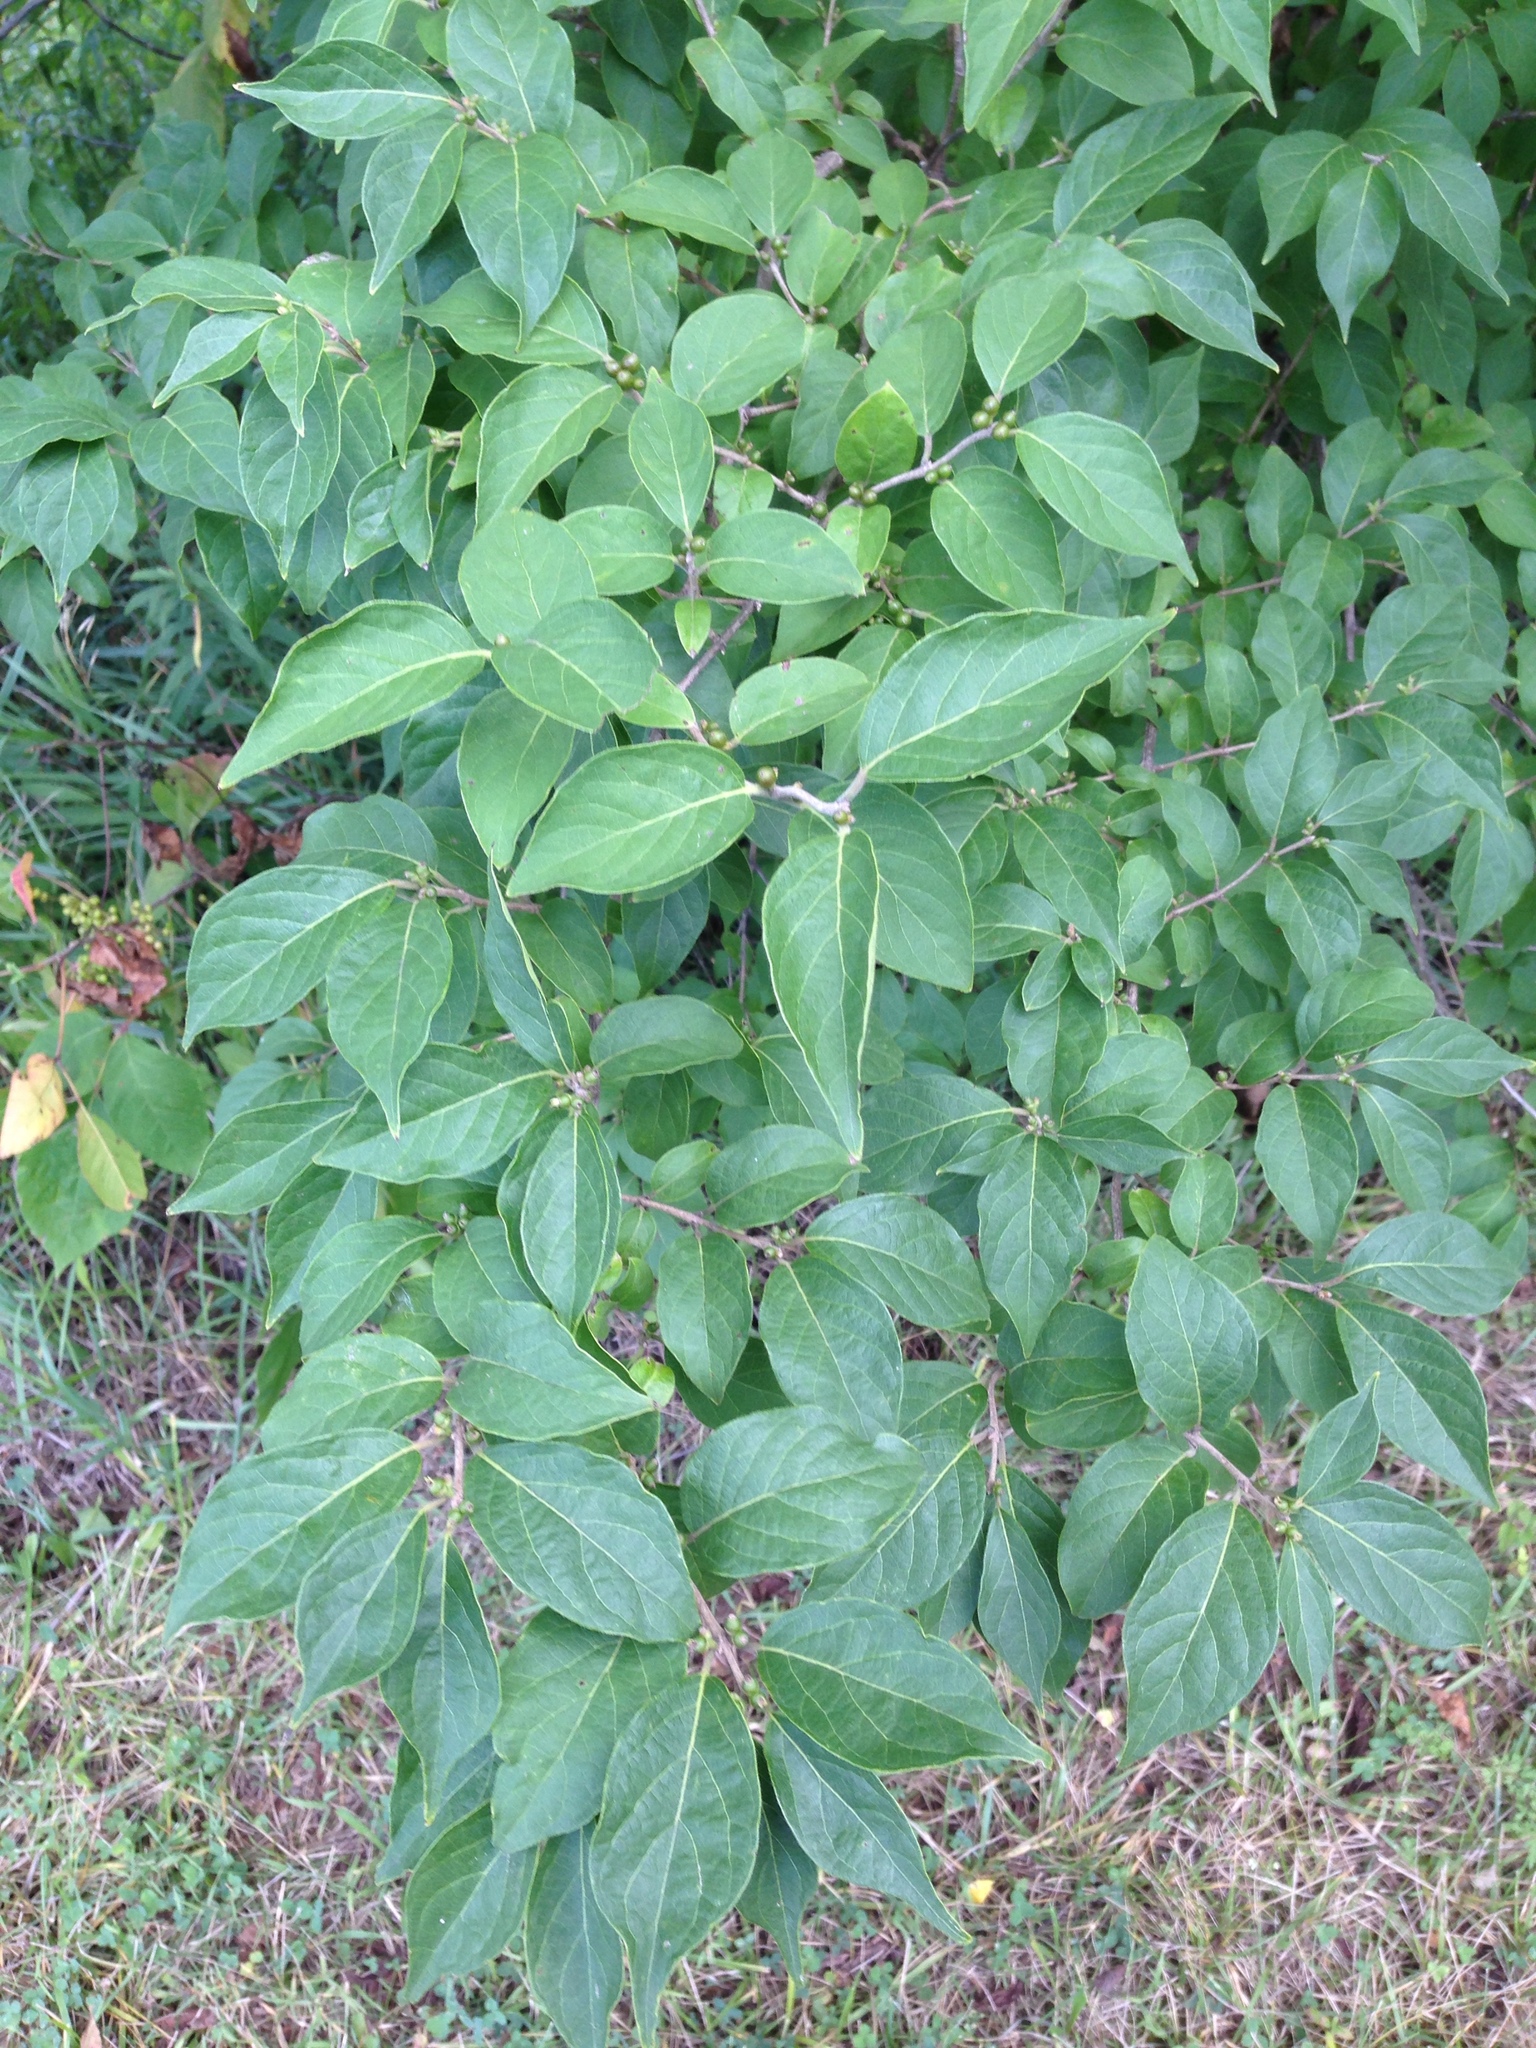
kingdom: Plantae
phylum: Tracheophyta
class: Magnoliopsida
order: Dipsacales
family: Caprifoliaceae
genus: Lonicera
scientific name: Lonicera maackii
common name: Amur honeysuckle
